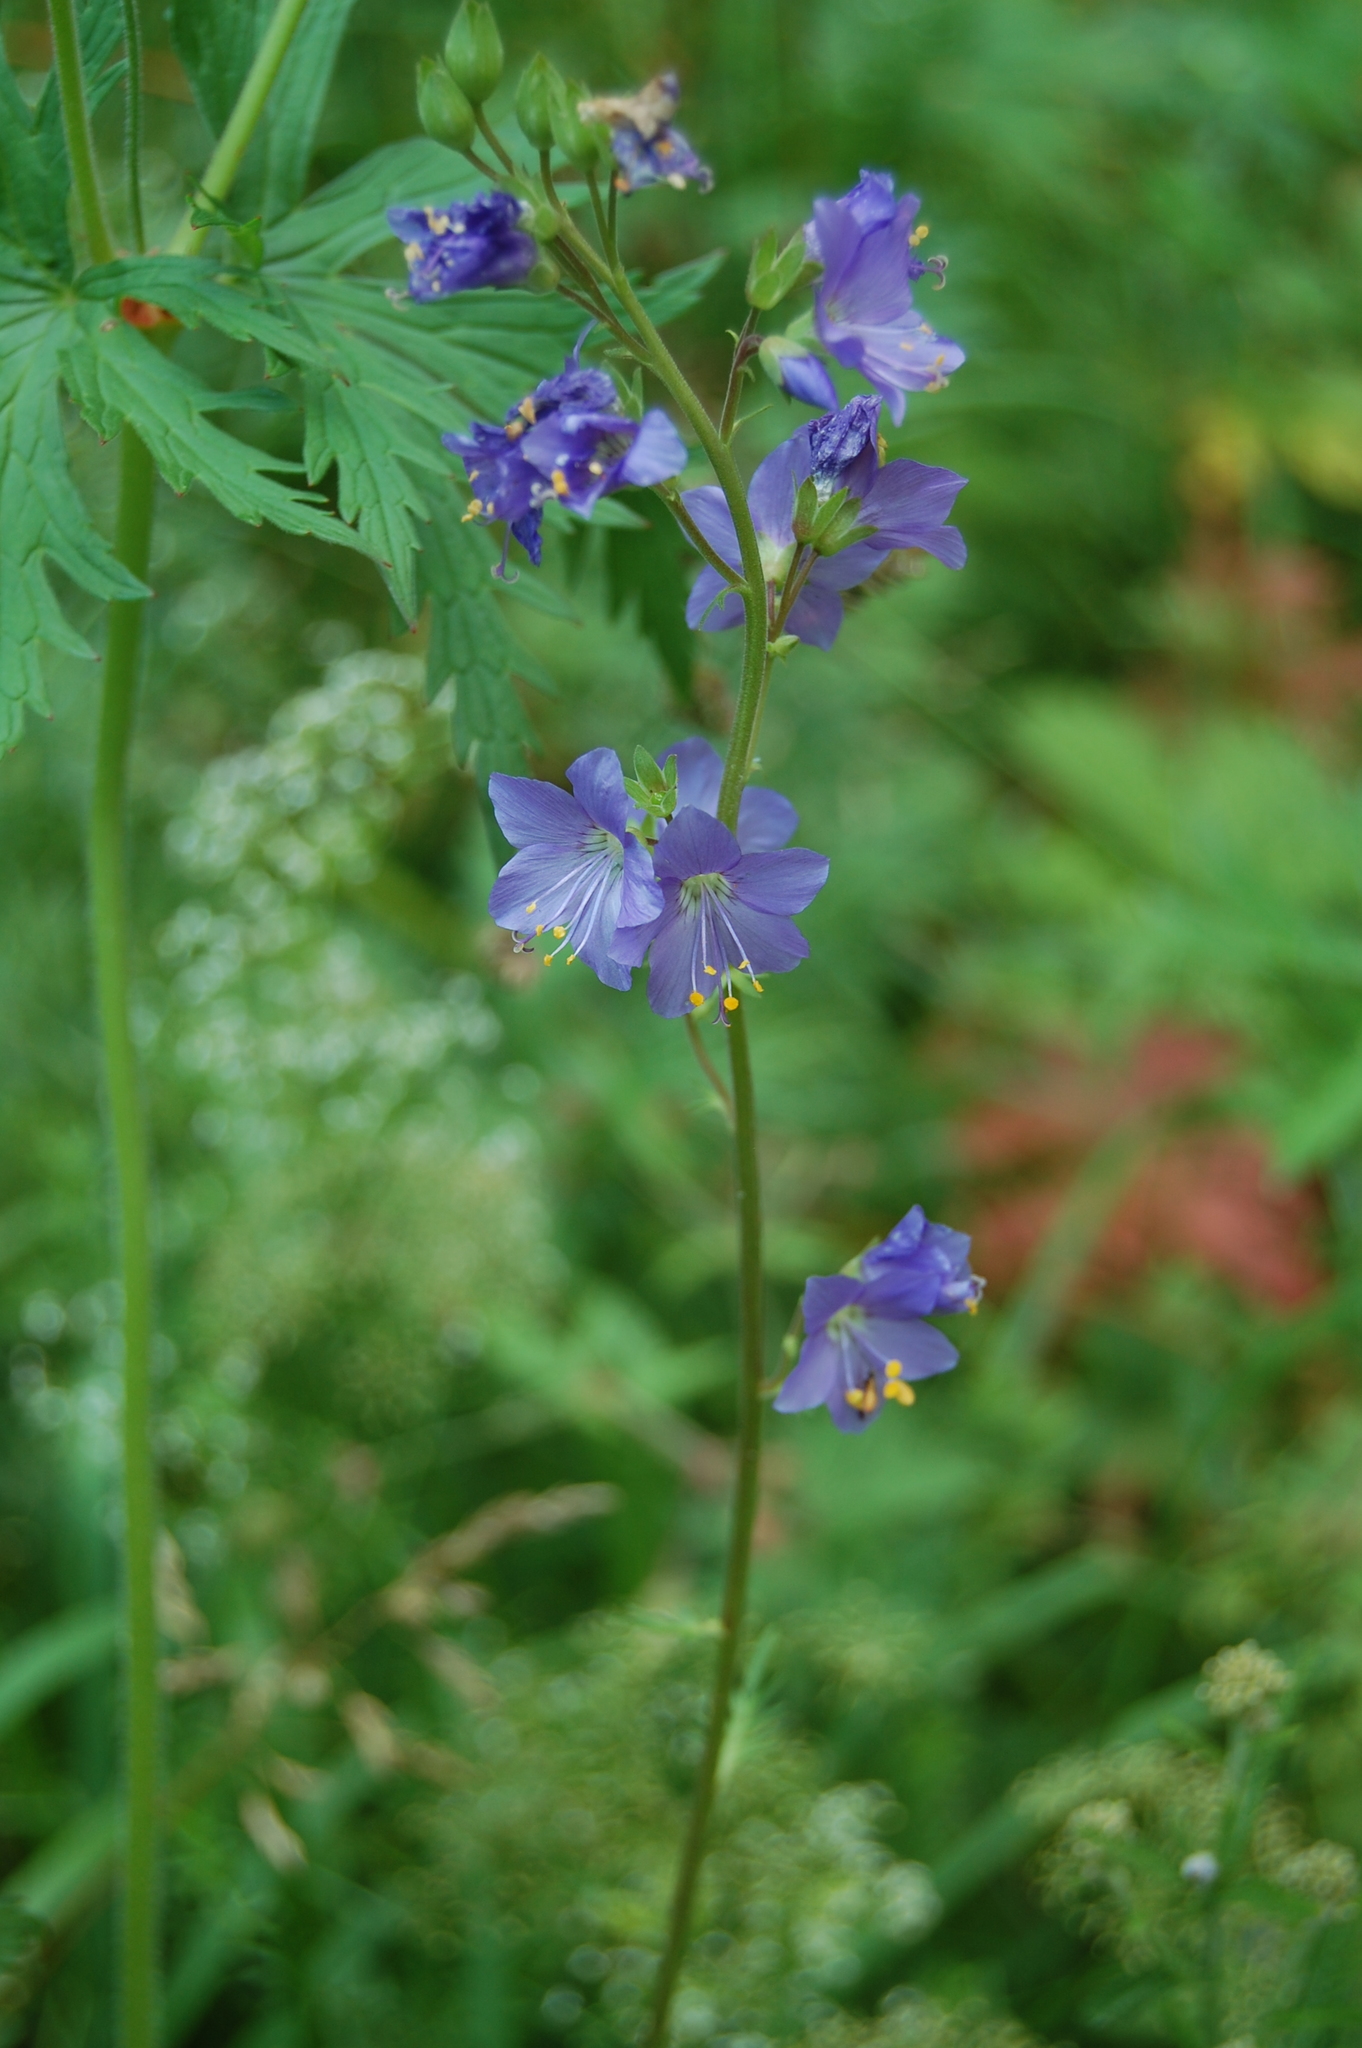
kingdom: Plantae
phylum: Tracheophyta
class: Magnoliopsida
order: Ericales
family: Polemoniaceae
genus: Polemonium
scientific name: Polemonium caeruleum
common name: Jacob's-ladder
